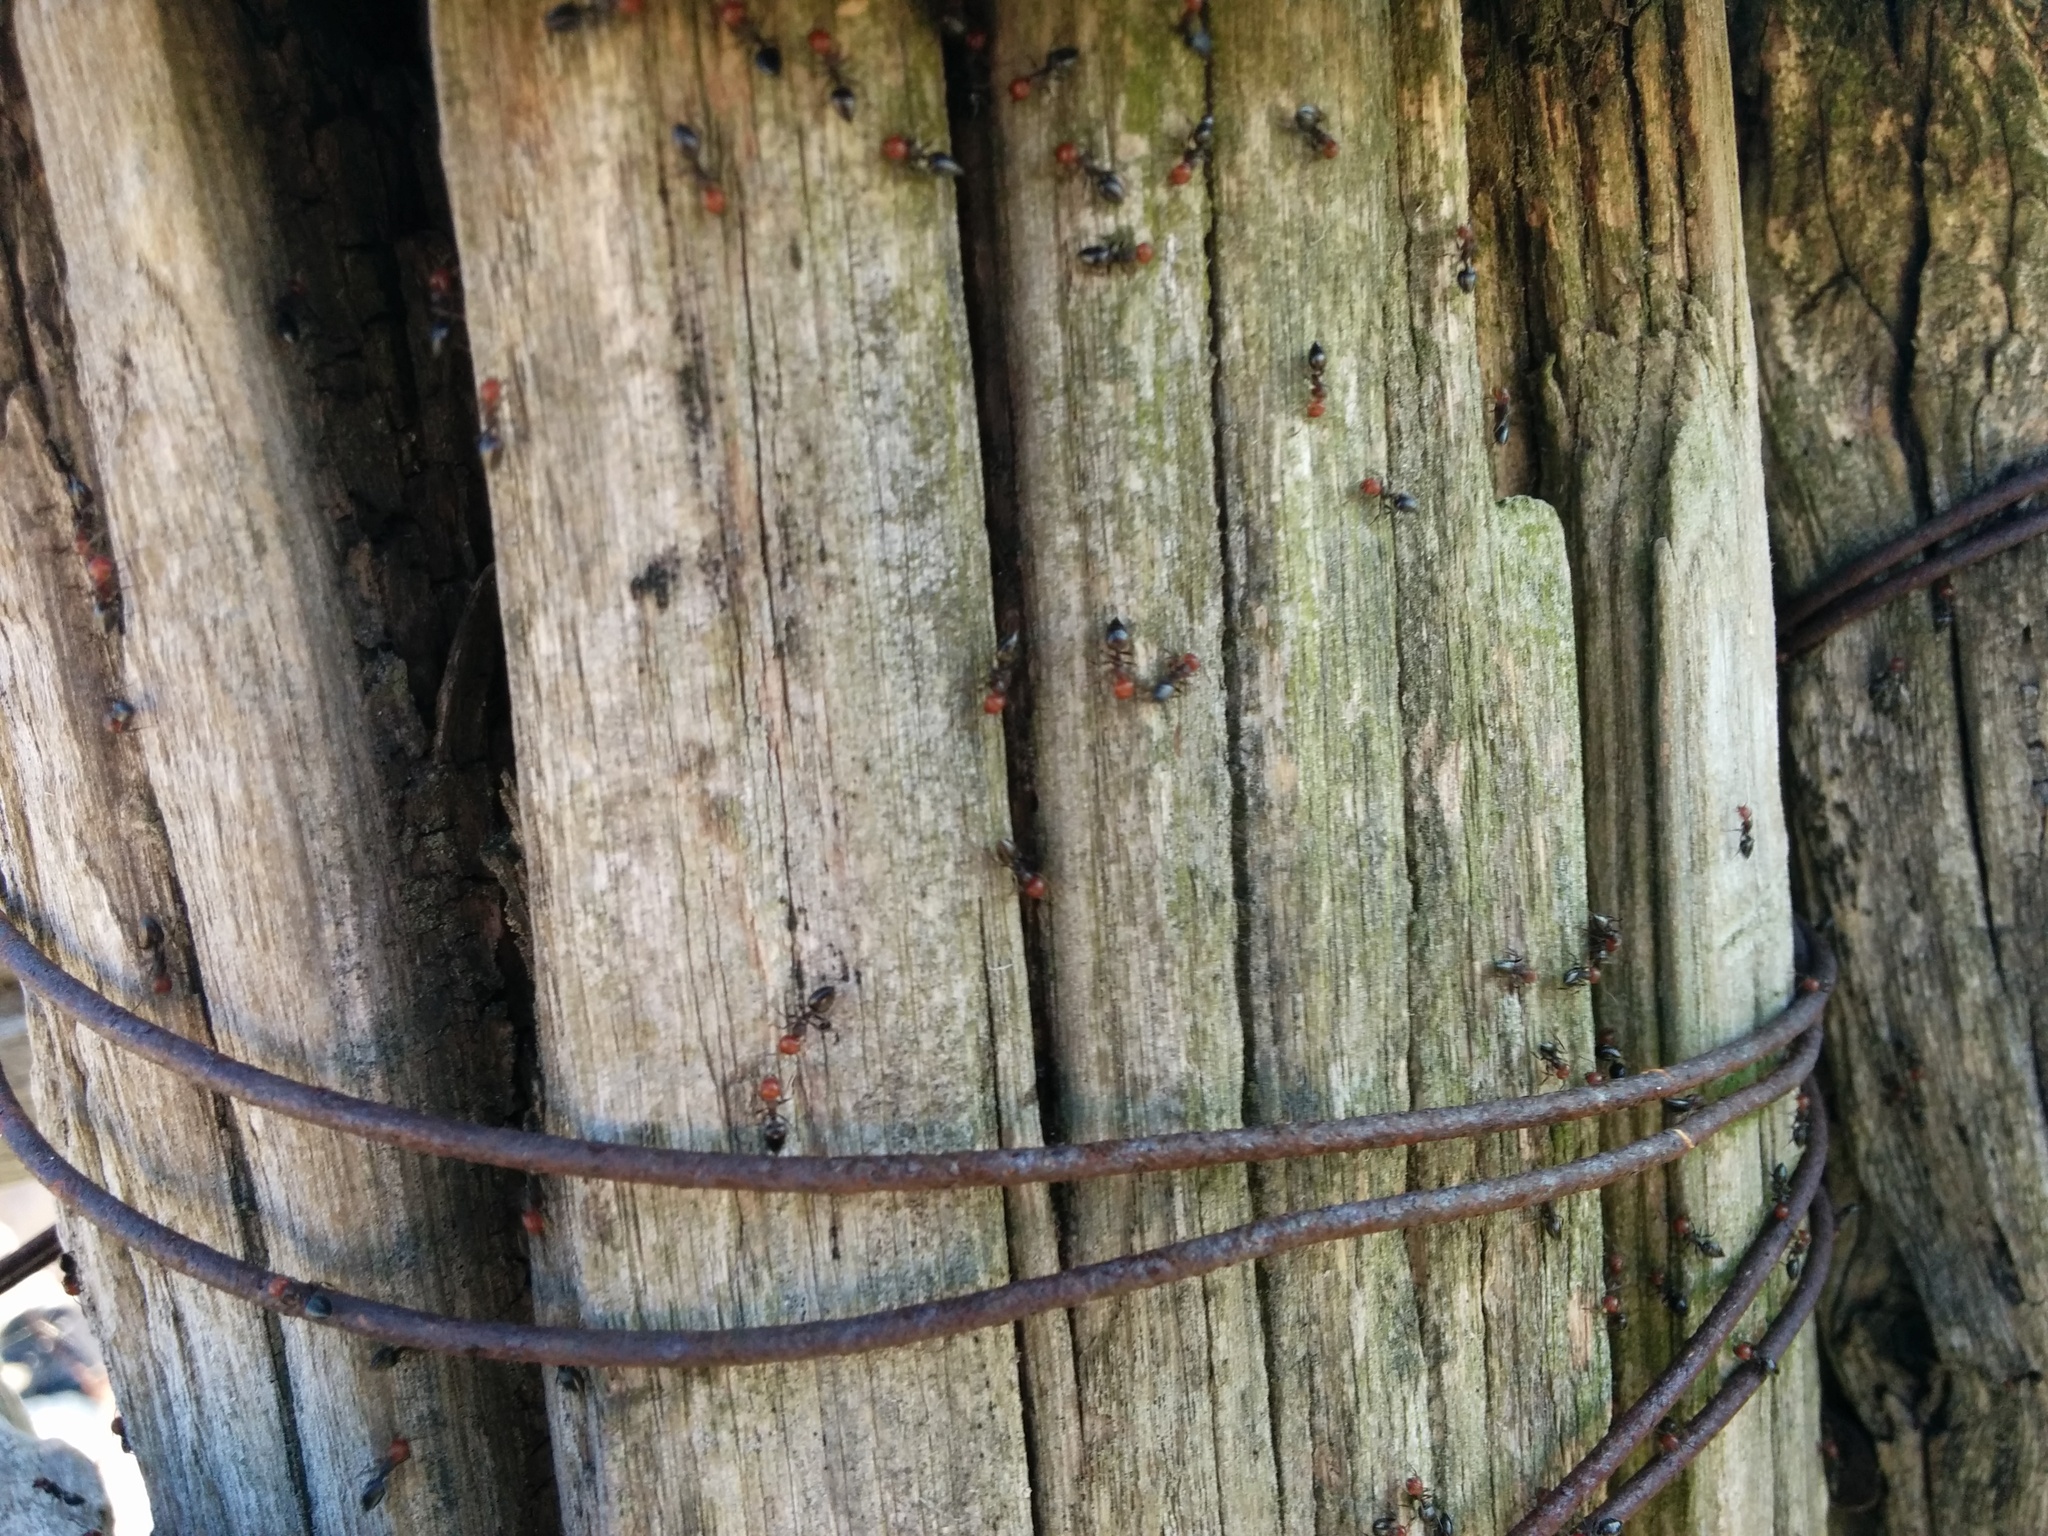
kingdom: Animalia
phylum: Arthropoda
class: Insecta
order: Hymenoptera
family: Formicidae
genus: Crematogaster
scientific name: Crematogaster scutellaris
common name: Fourmi du liège
